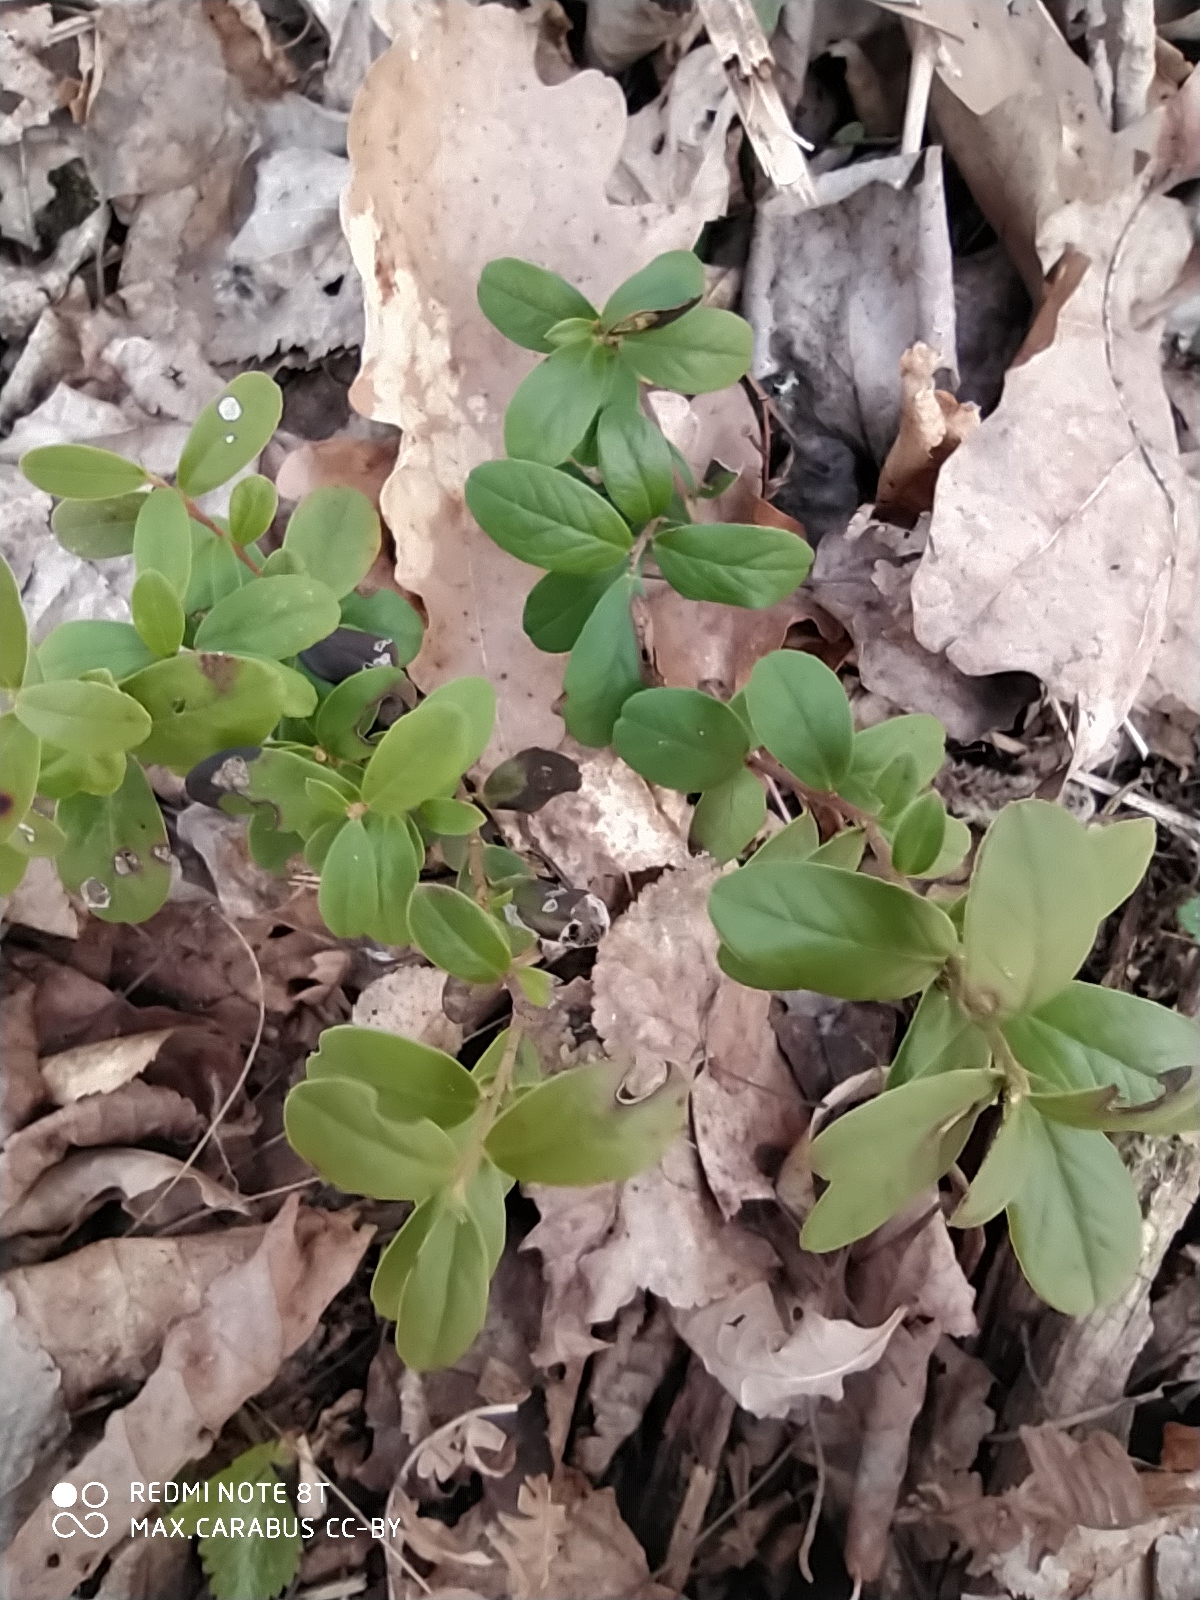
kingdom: Plantae
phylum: Tracheophyta
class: Magnoliopsida
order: Ericales
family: Ericaceae
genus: Vaccinium
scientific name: Vaccinium vitis-idaea
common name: Cowberry
